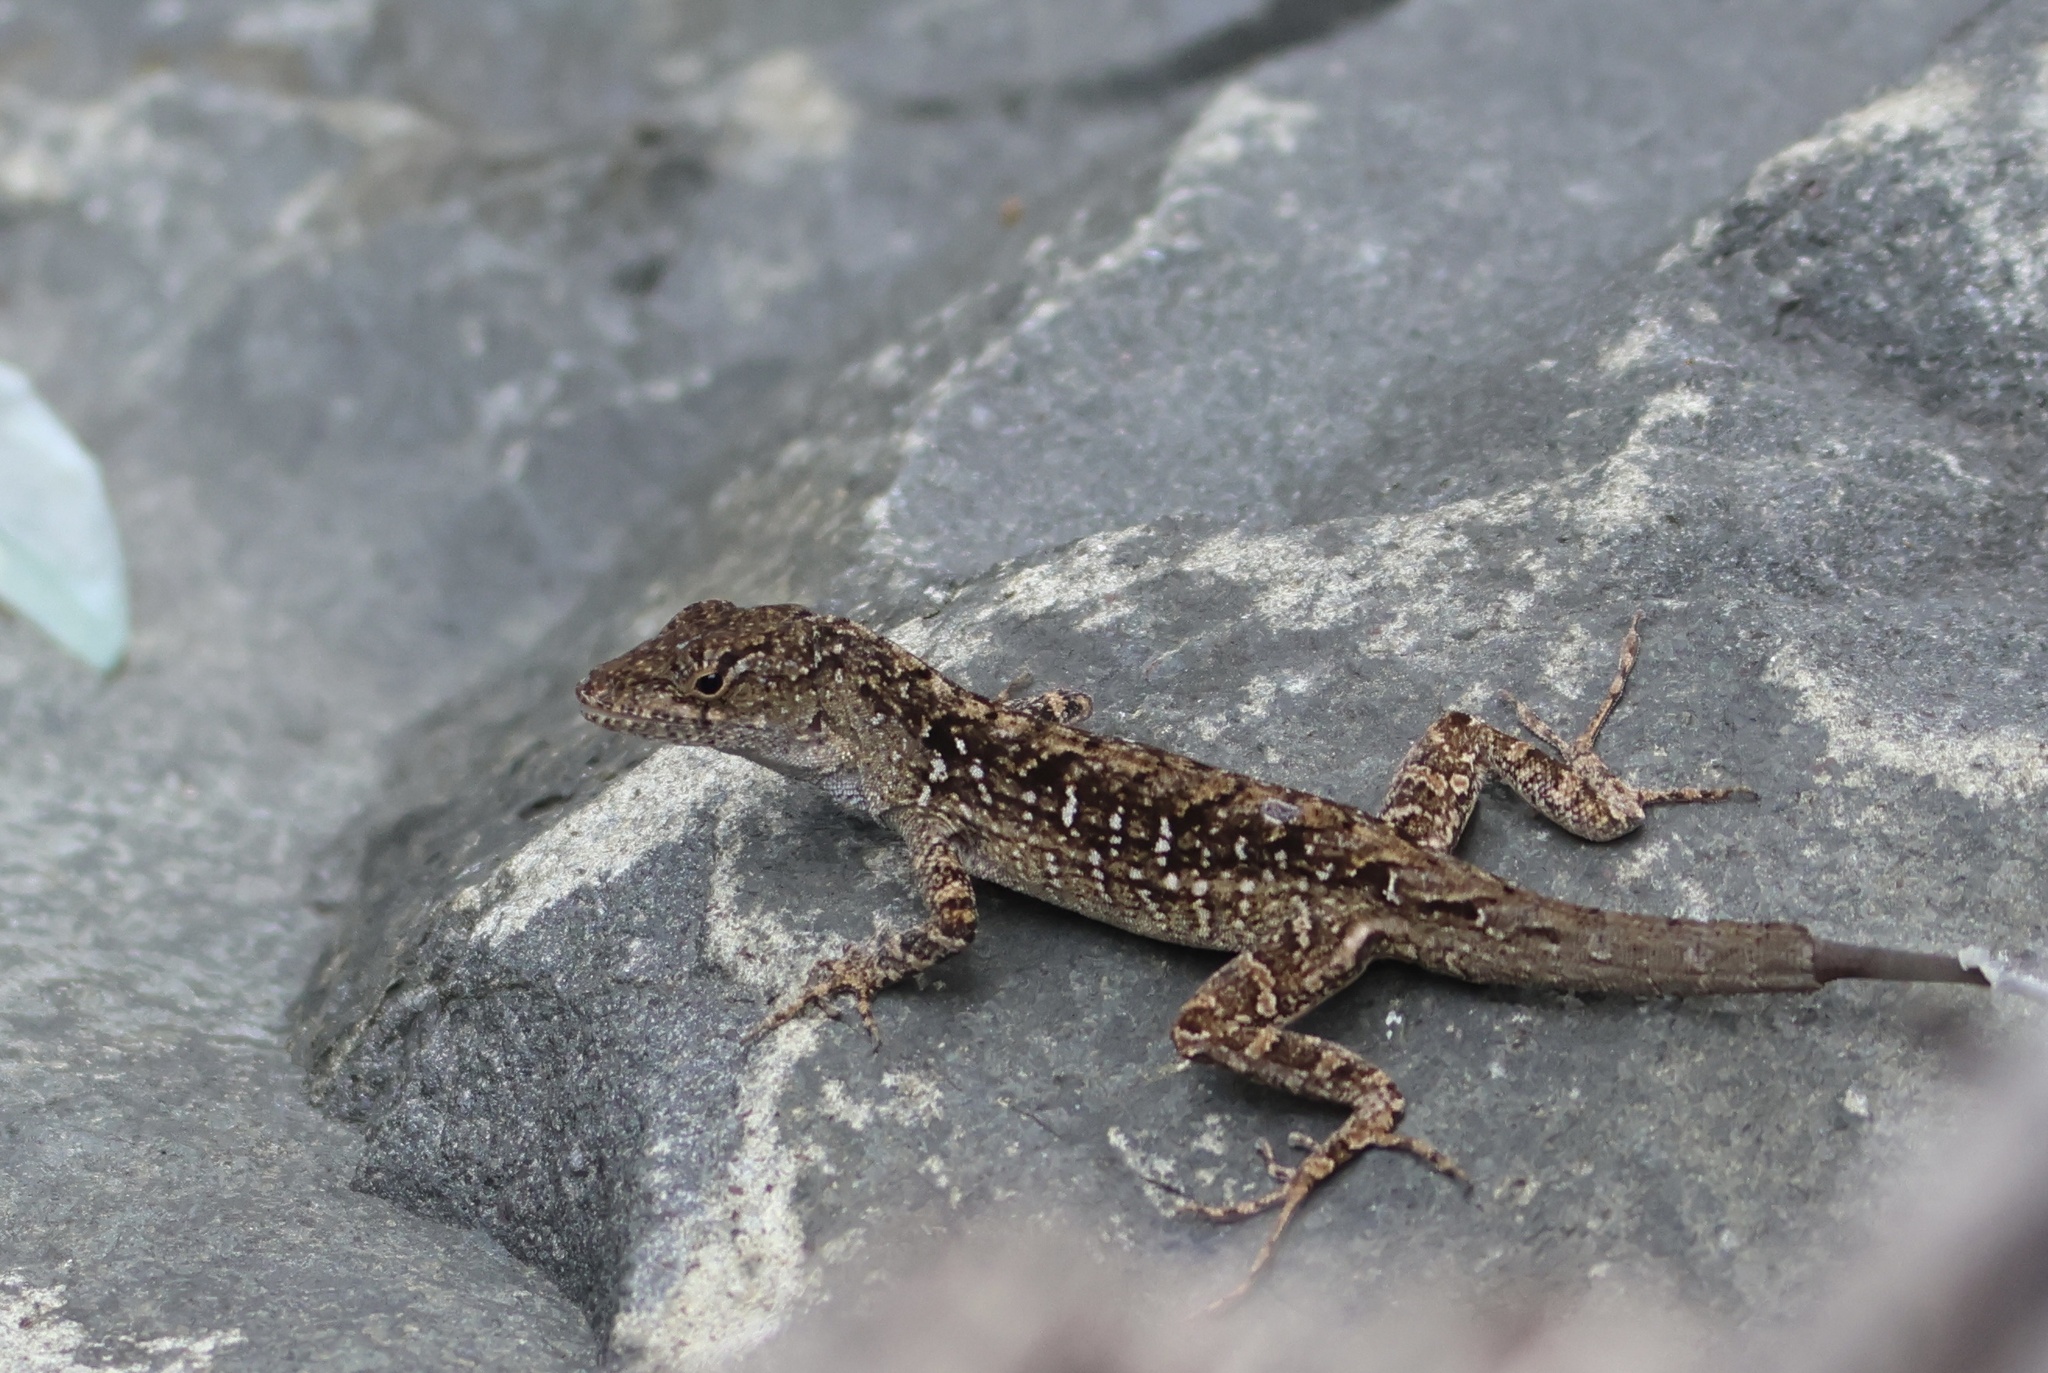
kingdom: Animalia
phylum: Chordata
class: Squamata
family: Dactyloidae
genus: Anolis
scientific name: Anolis sagrei
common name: Brown anole
